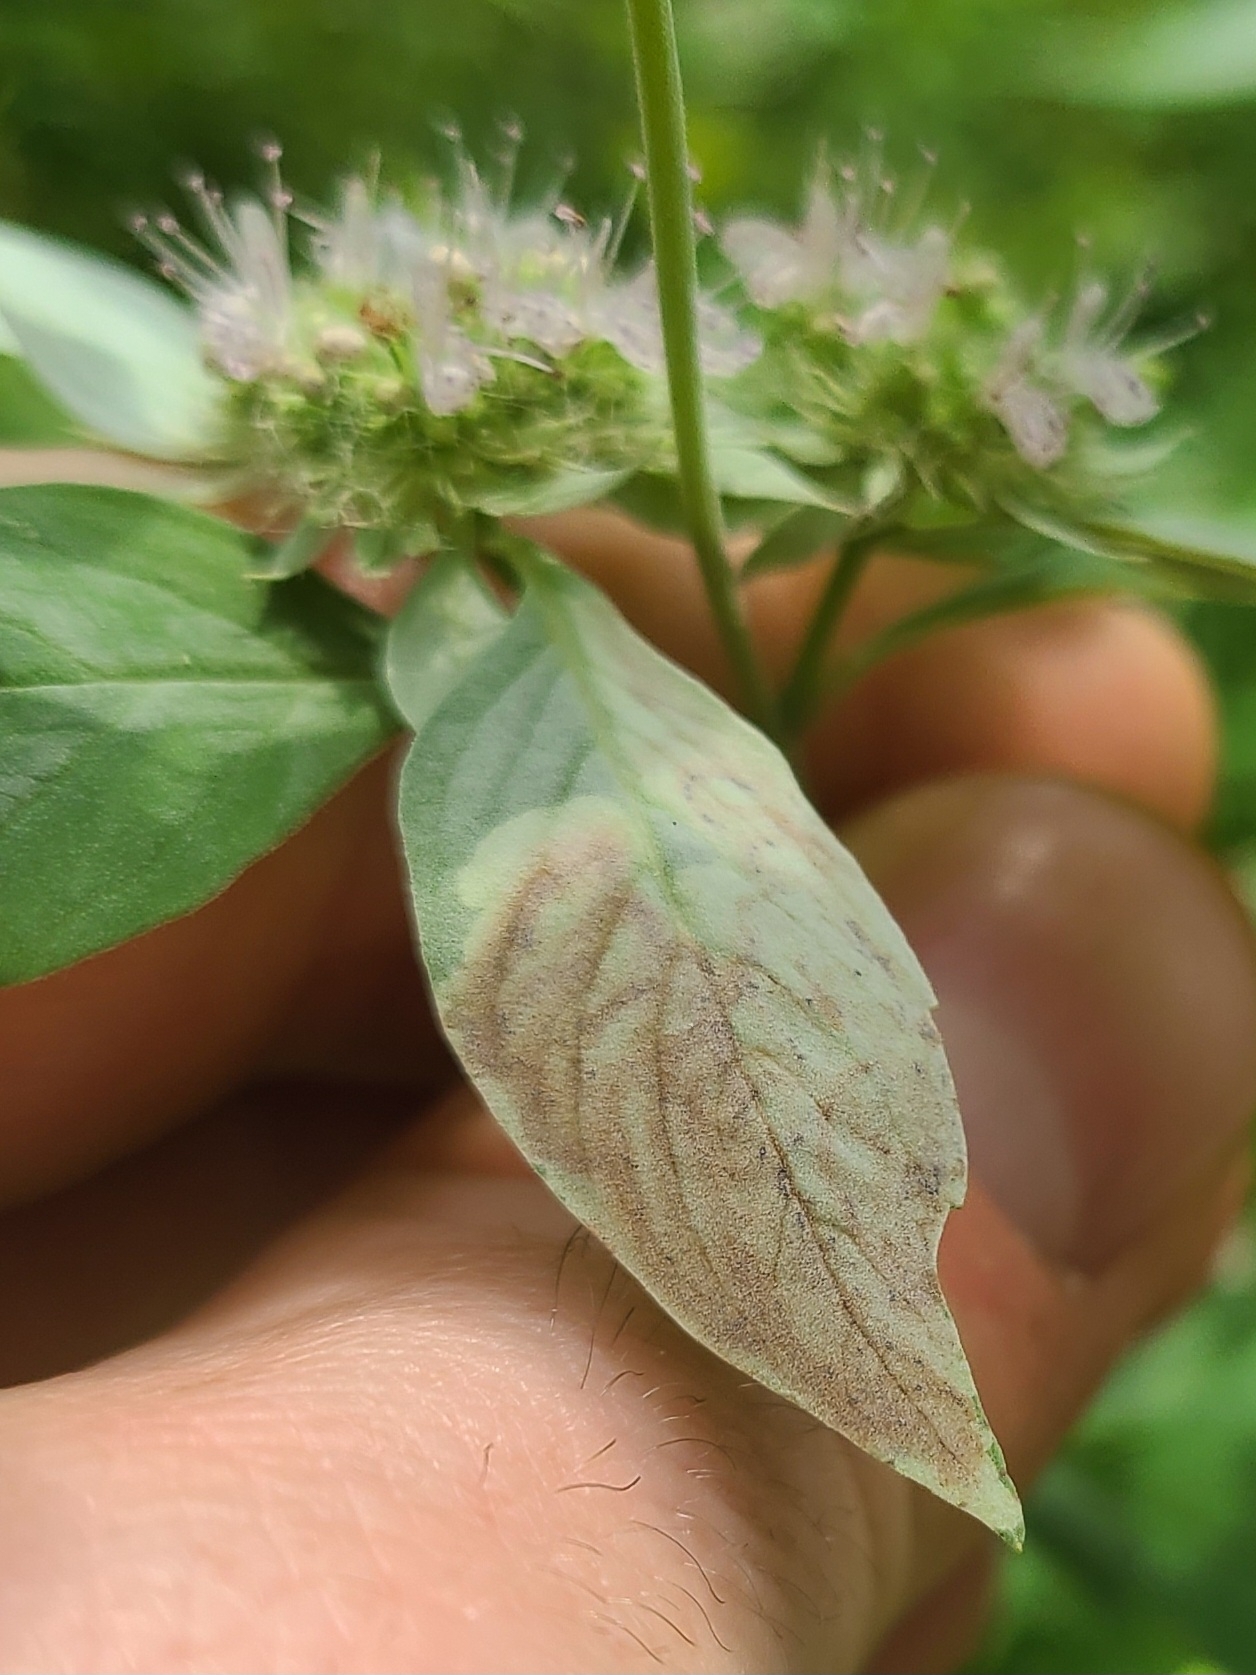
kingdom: Animalia
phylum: Arthropoda
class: Insecta
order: Diptera
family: Agromyzidae
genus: Calycomyza
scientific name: Calycomyza menthae
